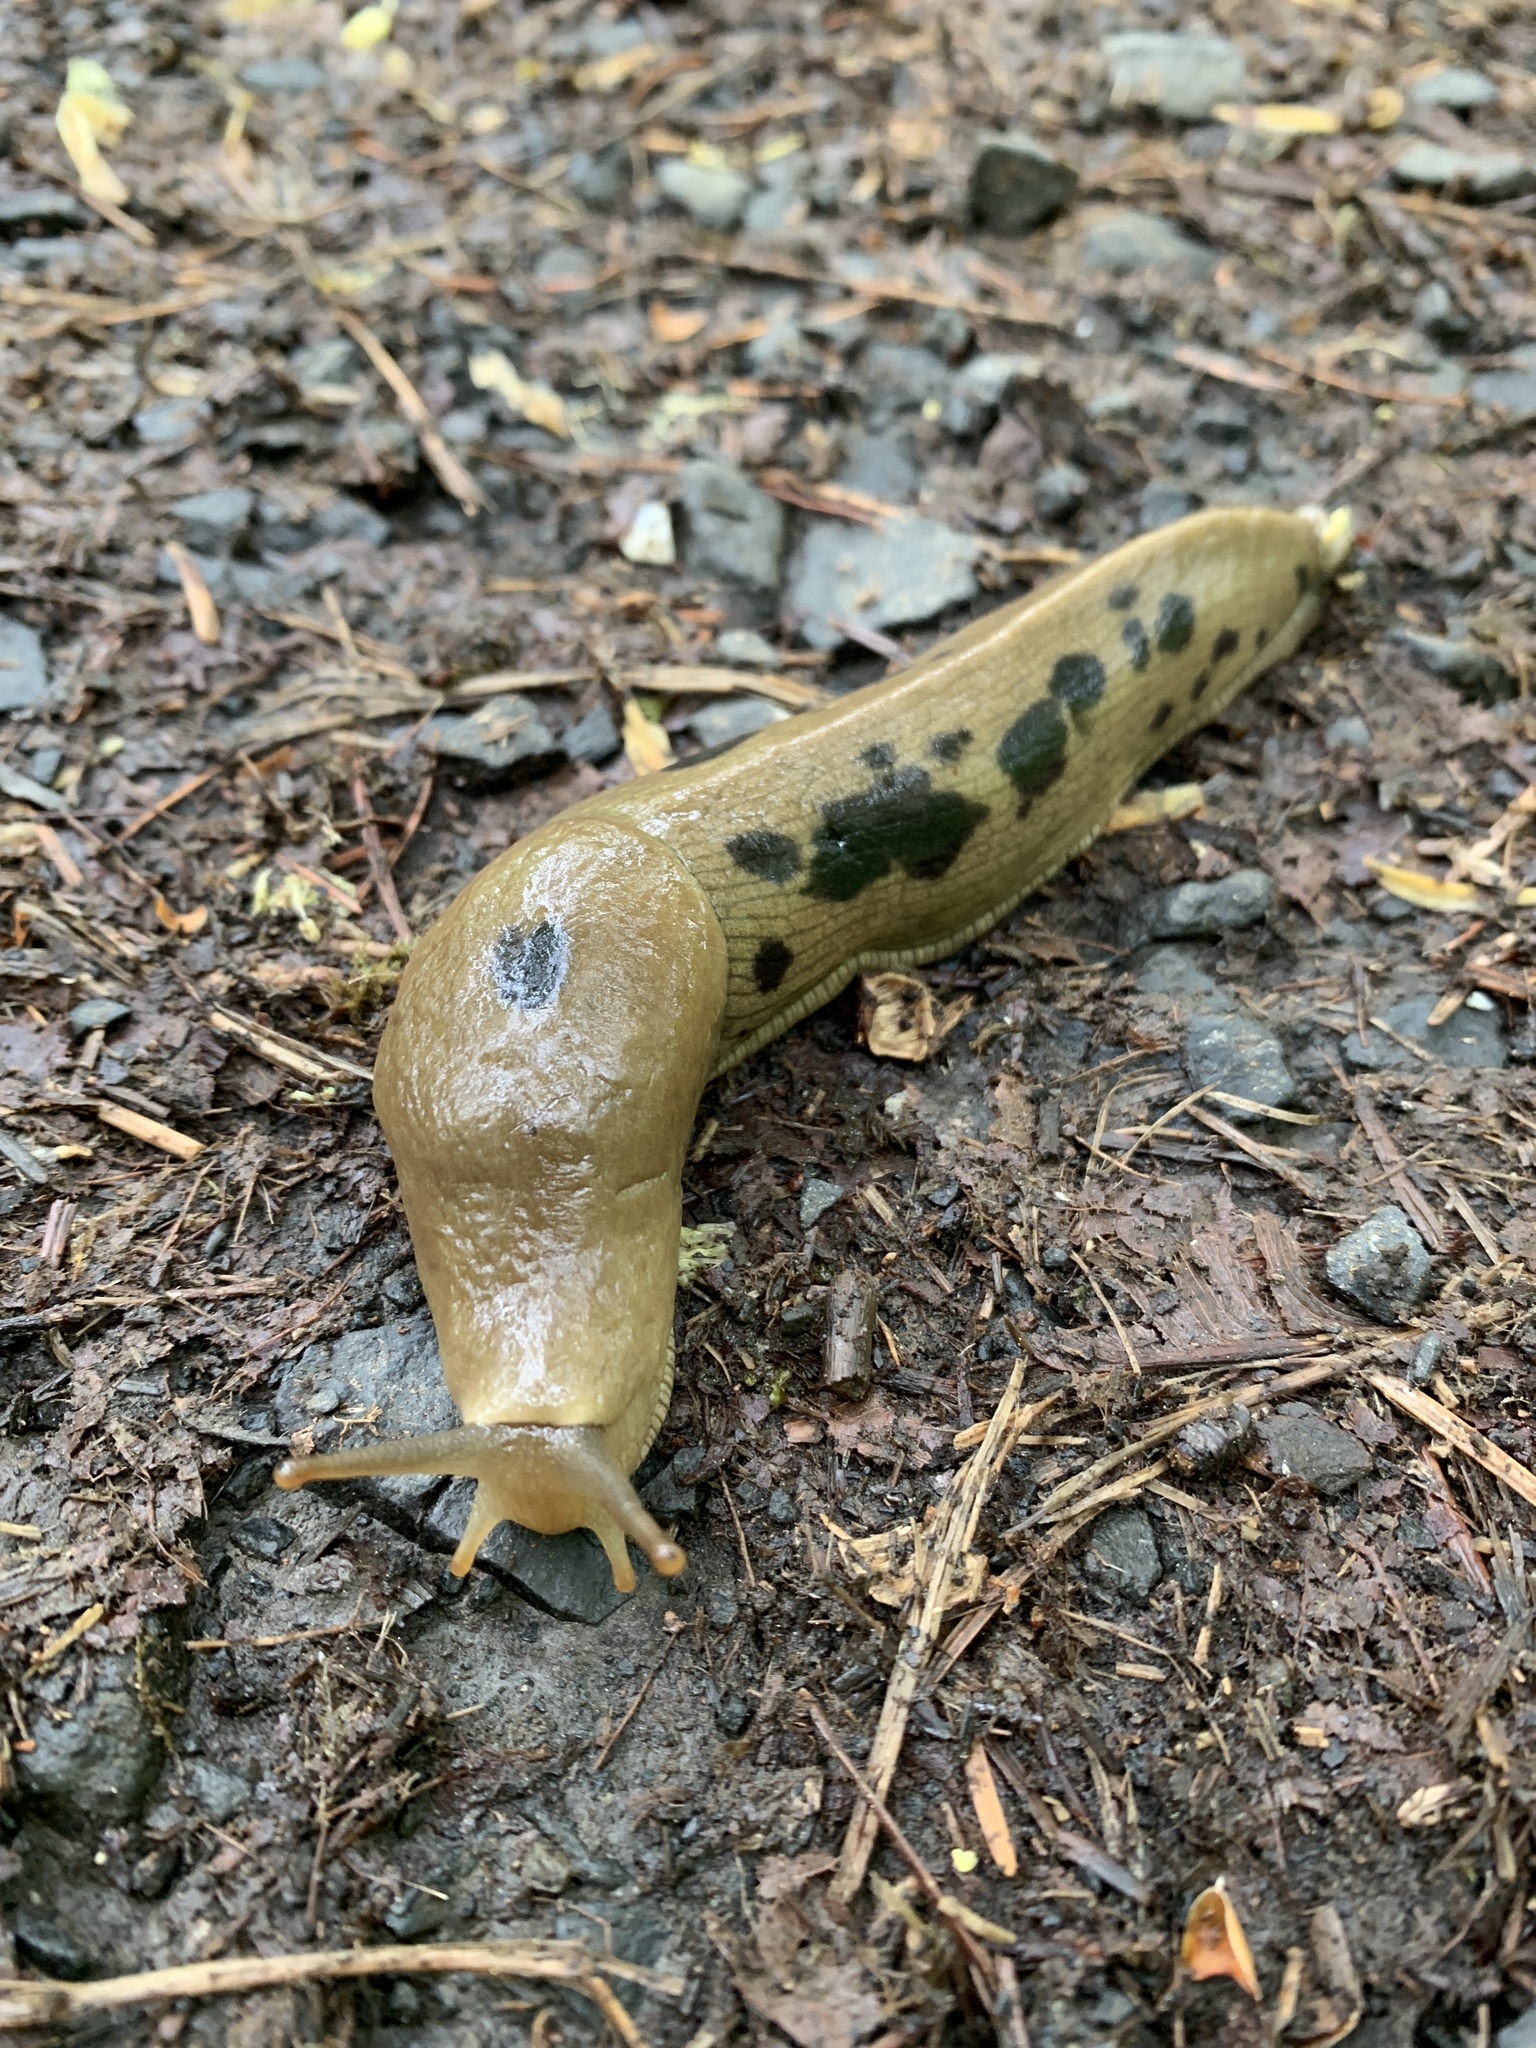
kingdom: Animalia
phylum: Mollusca
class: Gastropoda
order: Stylommatophora
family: Ariolimacidae
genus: Ariolimax
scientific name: Ariolimax columbianus
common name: Pacific banana slug
